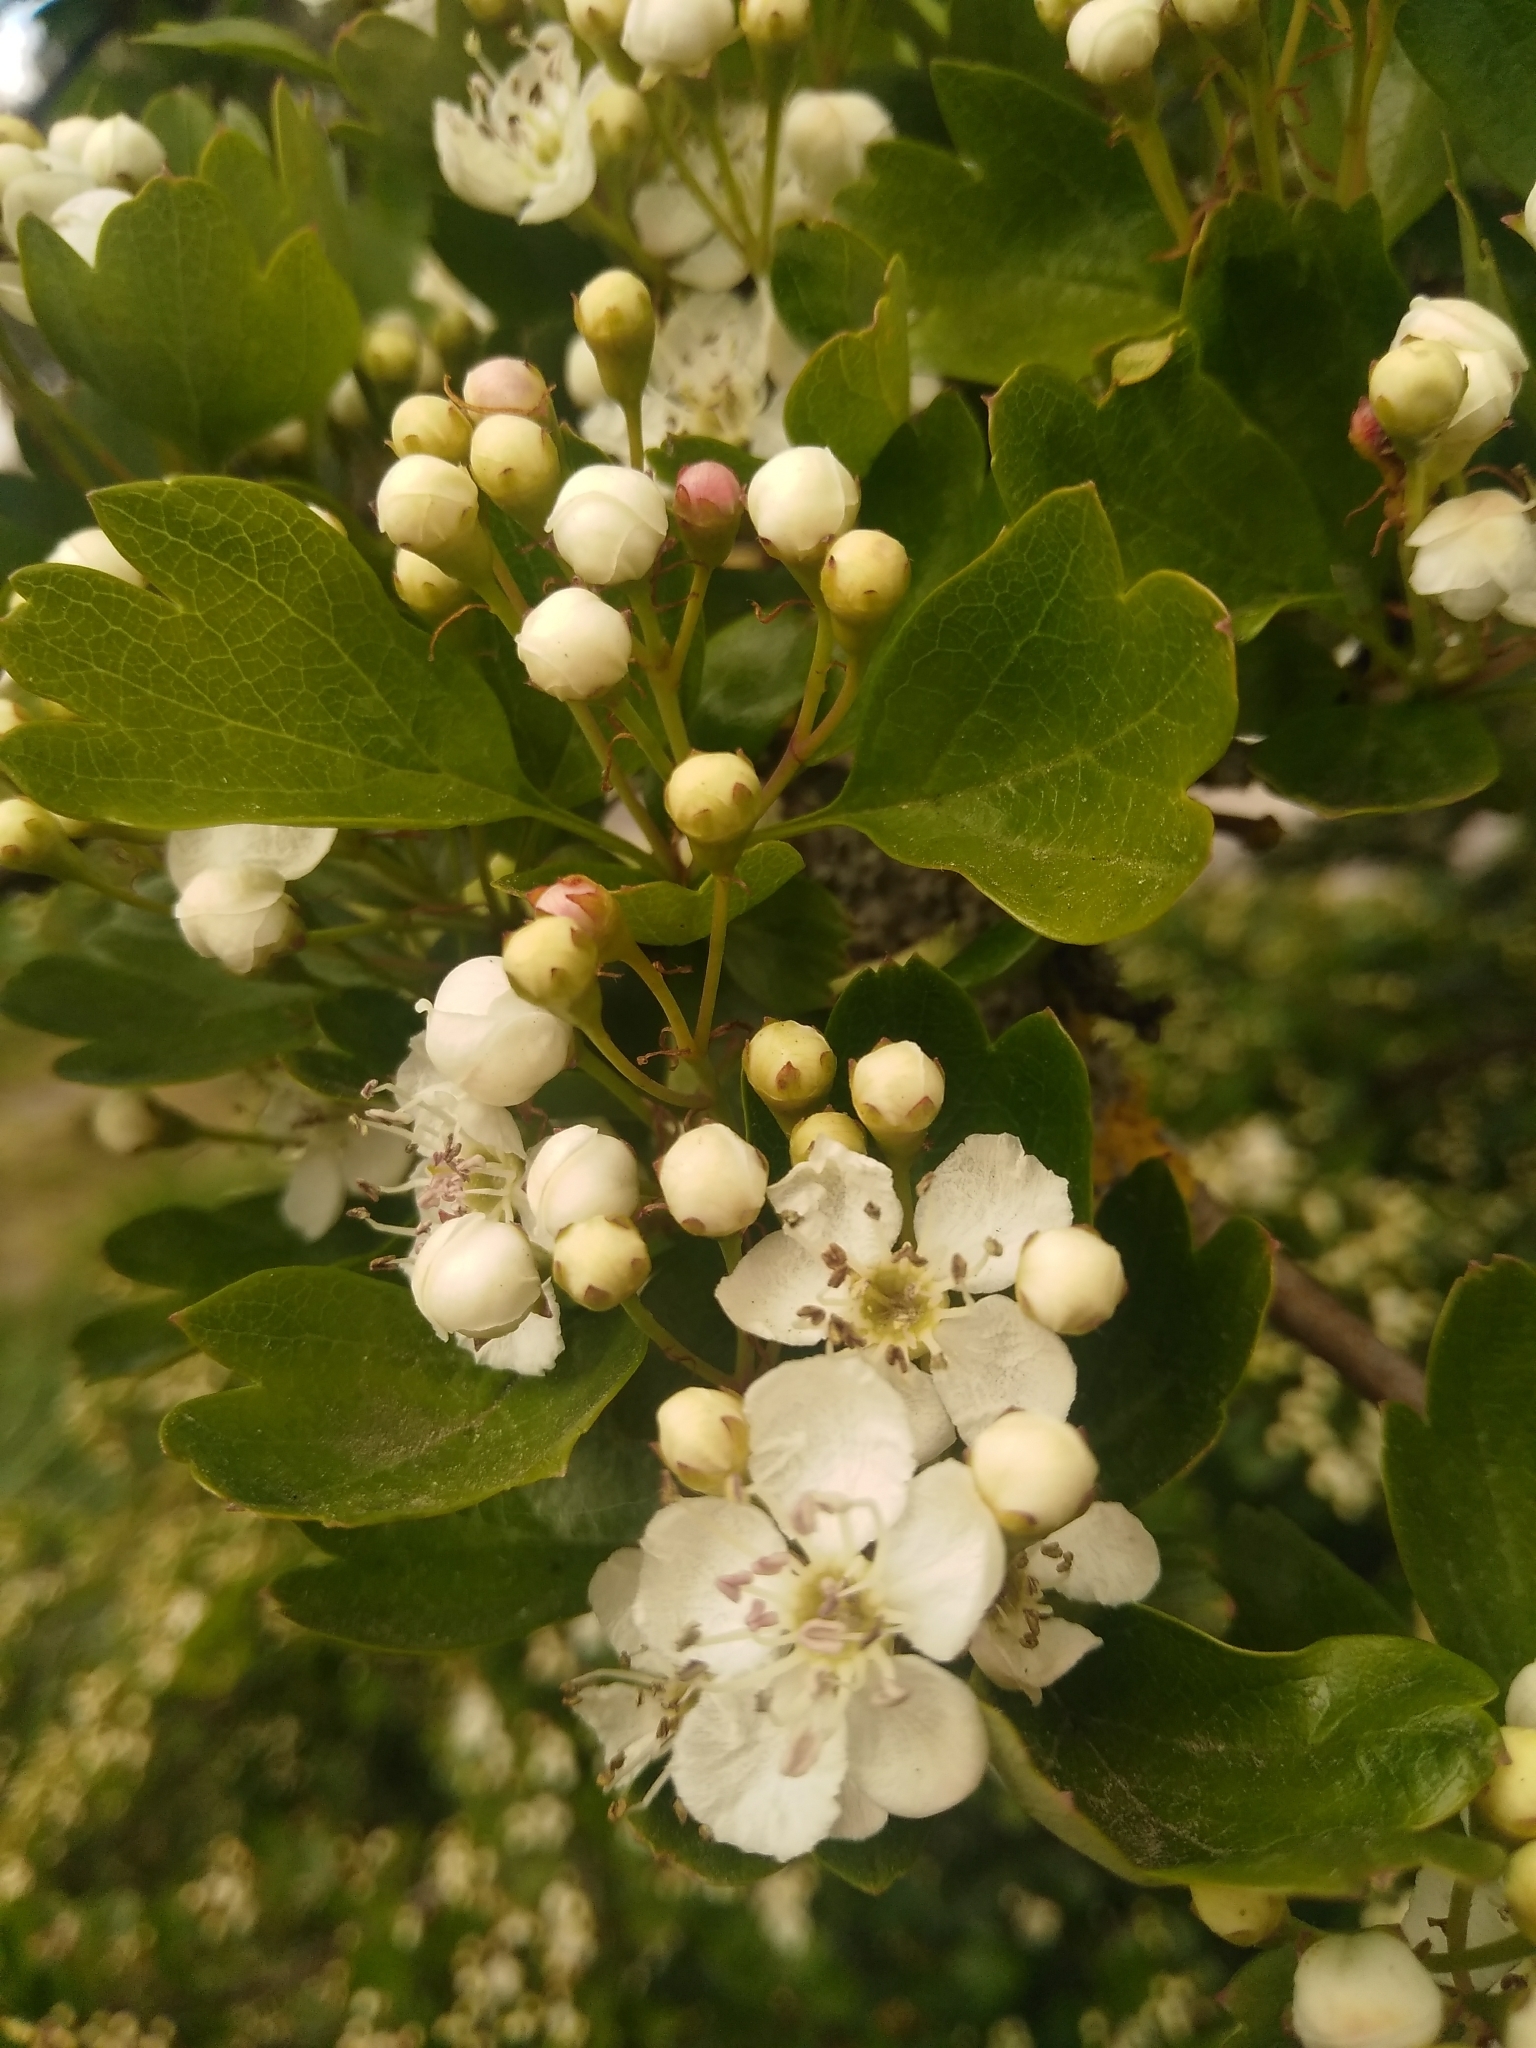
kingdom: Plantae
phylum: Tracheophyta
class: Magnoliopsida
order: Rosales
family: Rosaceae
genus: Crataegus
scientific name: Crataegus monogyna
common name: Hawthorn
